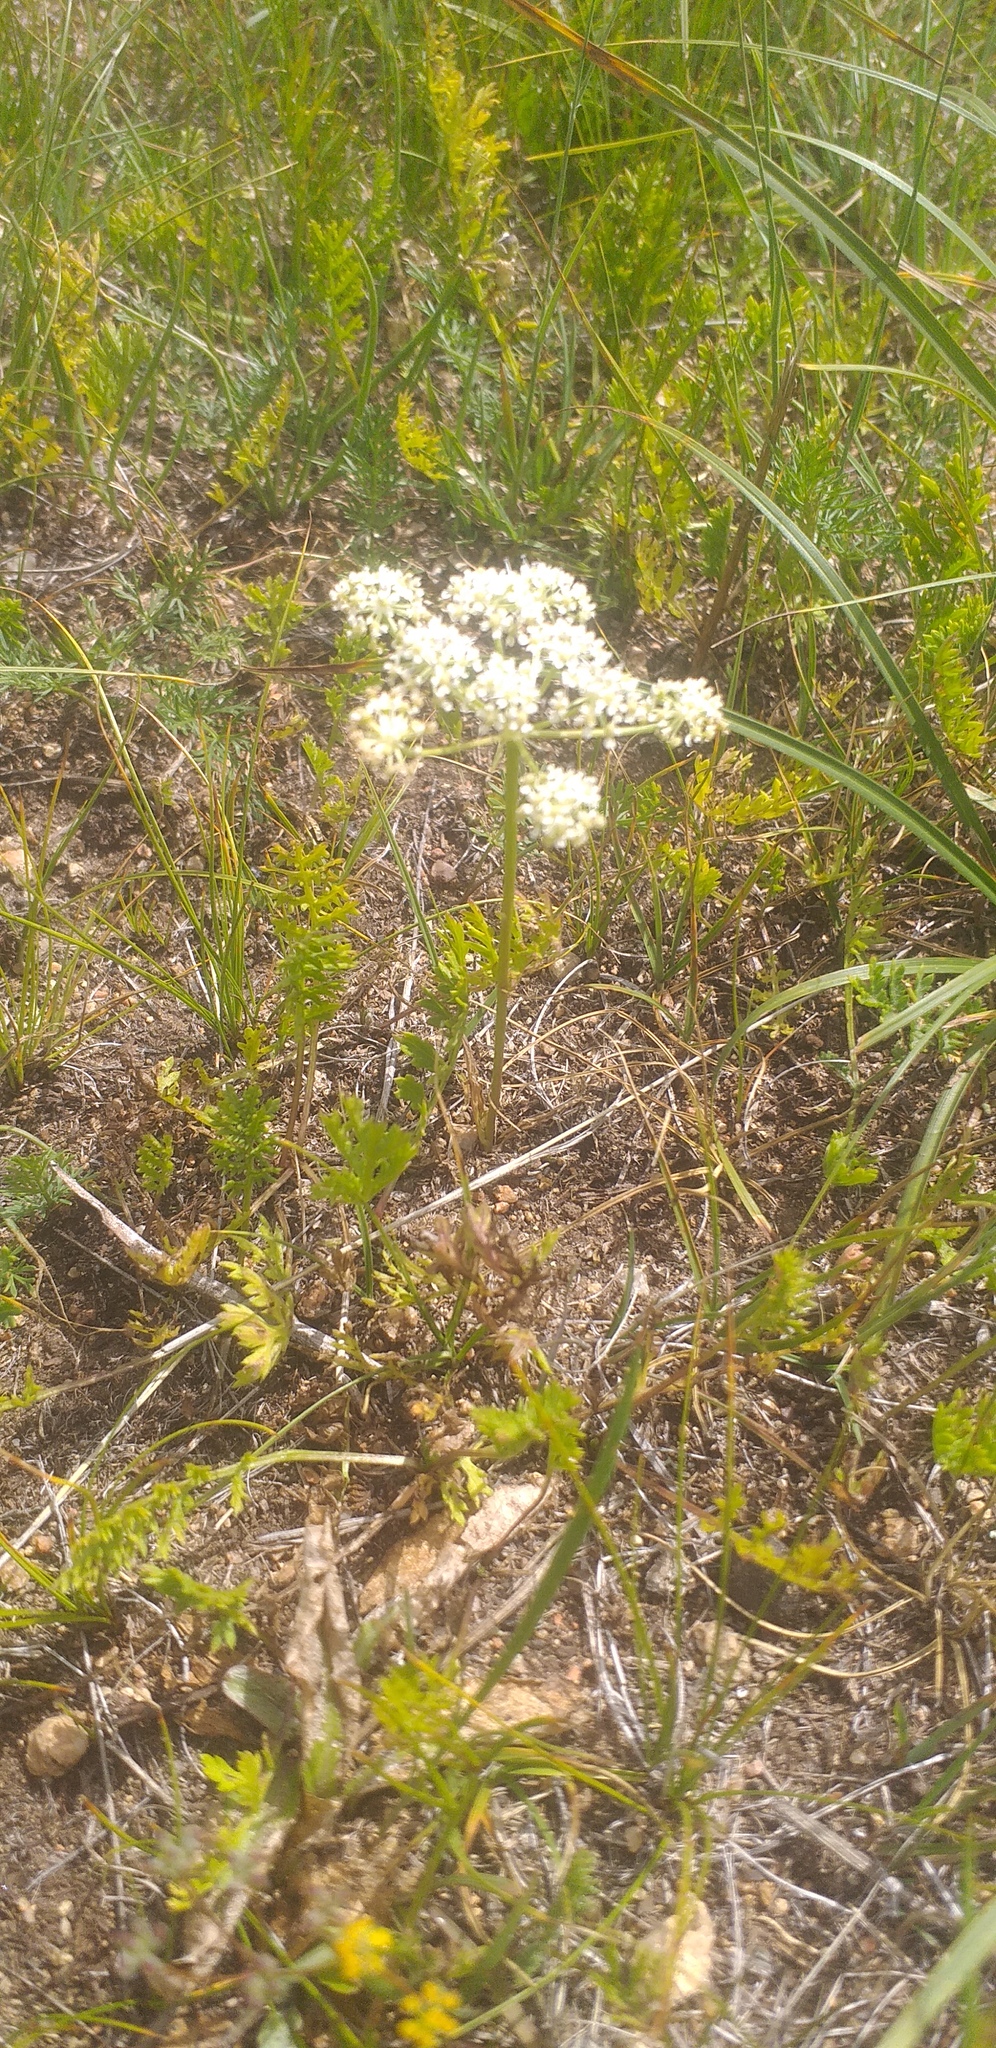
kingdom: Plantae
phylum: Tracheophyta
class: Magnoliopsida
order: Apiales
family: Apiaceae
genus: Peucedanum
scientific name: Peucedanum vaginatum
